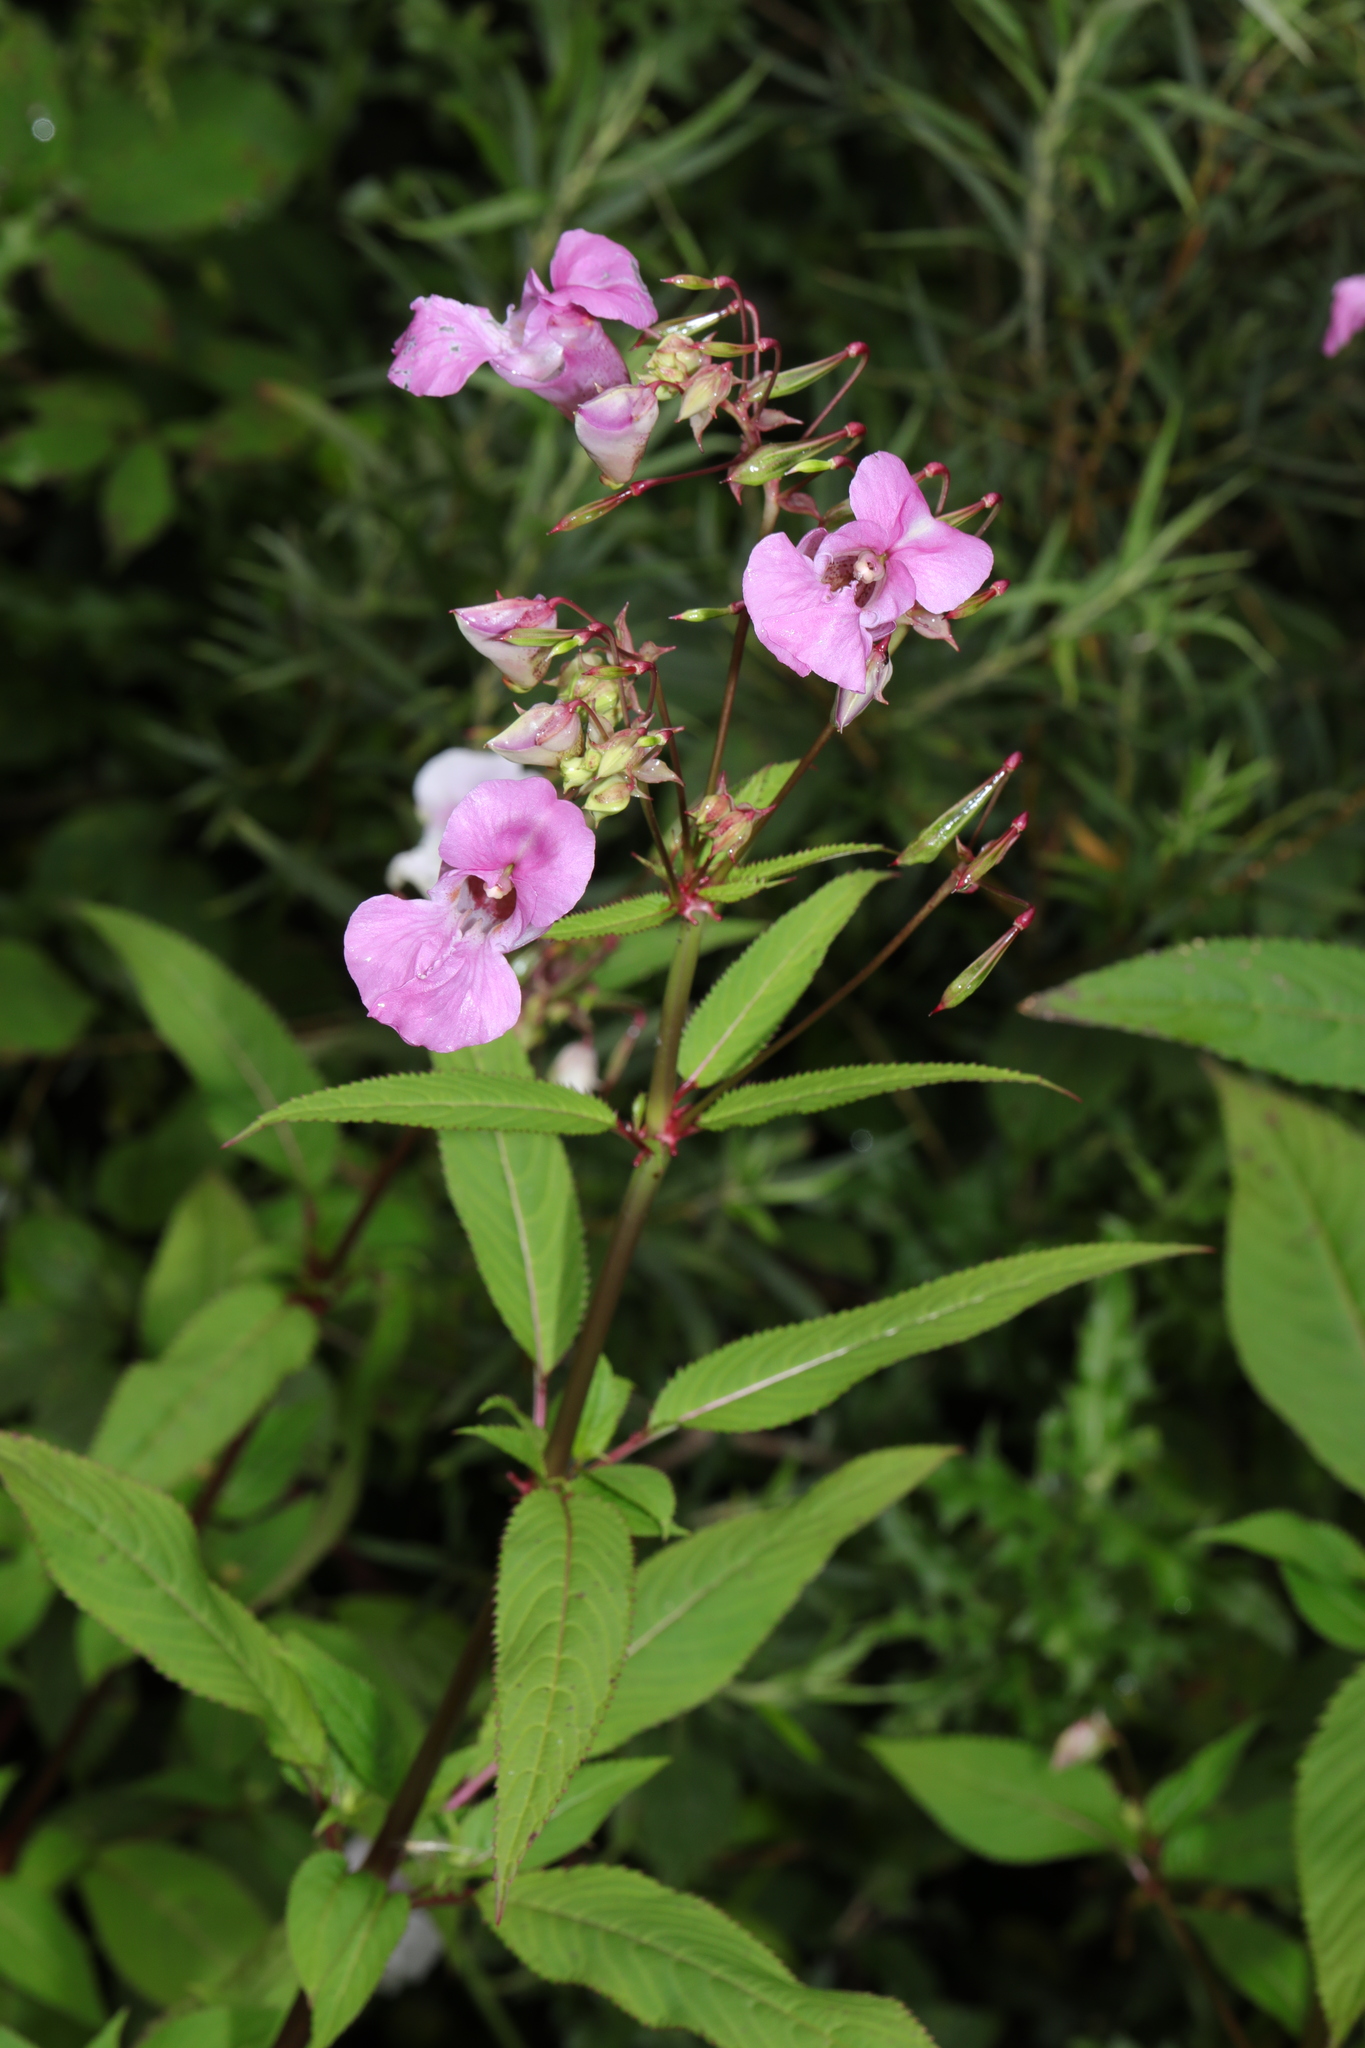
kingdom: Plantae
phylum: Tracheophyta
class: Magnoliopsida
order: Ericales
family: Balsaminaceae
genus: Impatiens
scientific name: Impatiens glandulifera
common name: Himalayan balsam
